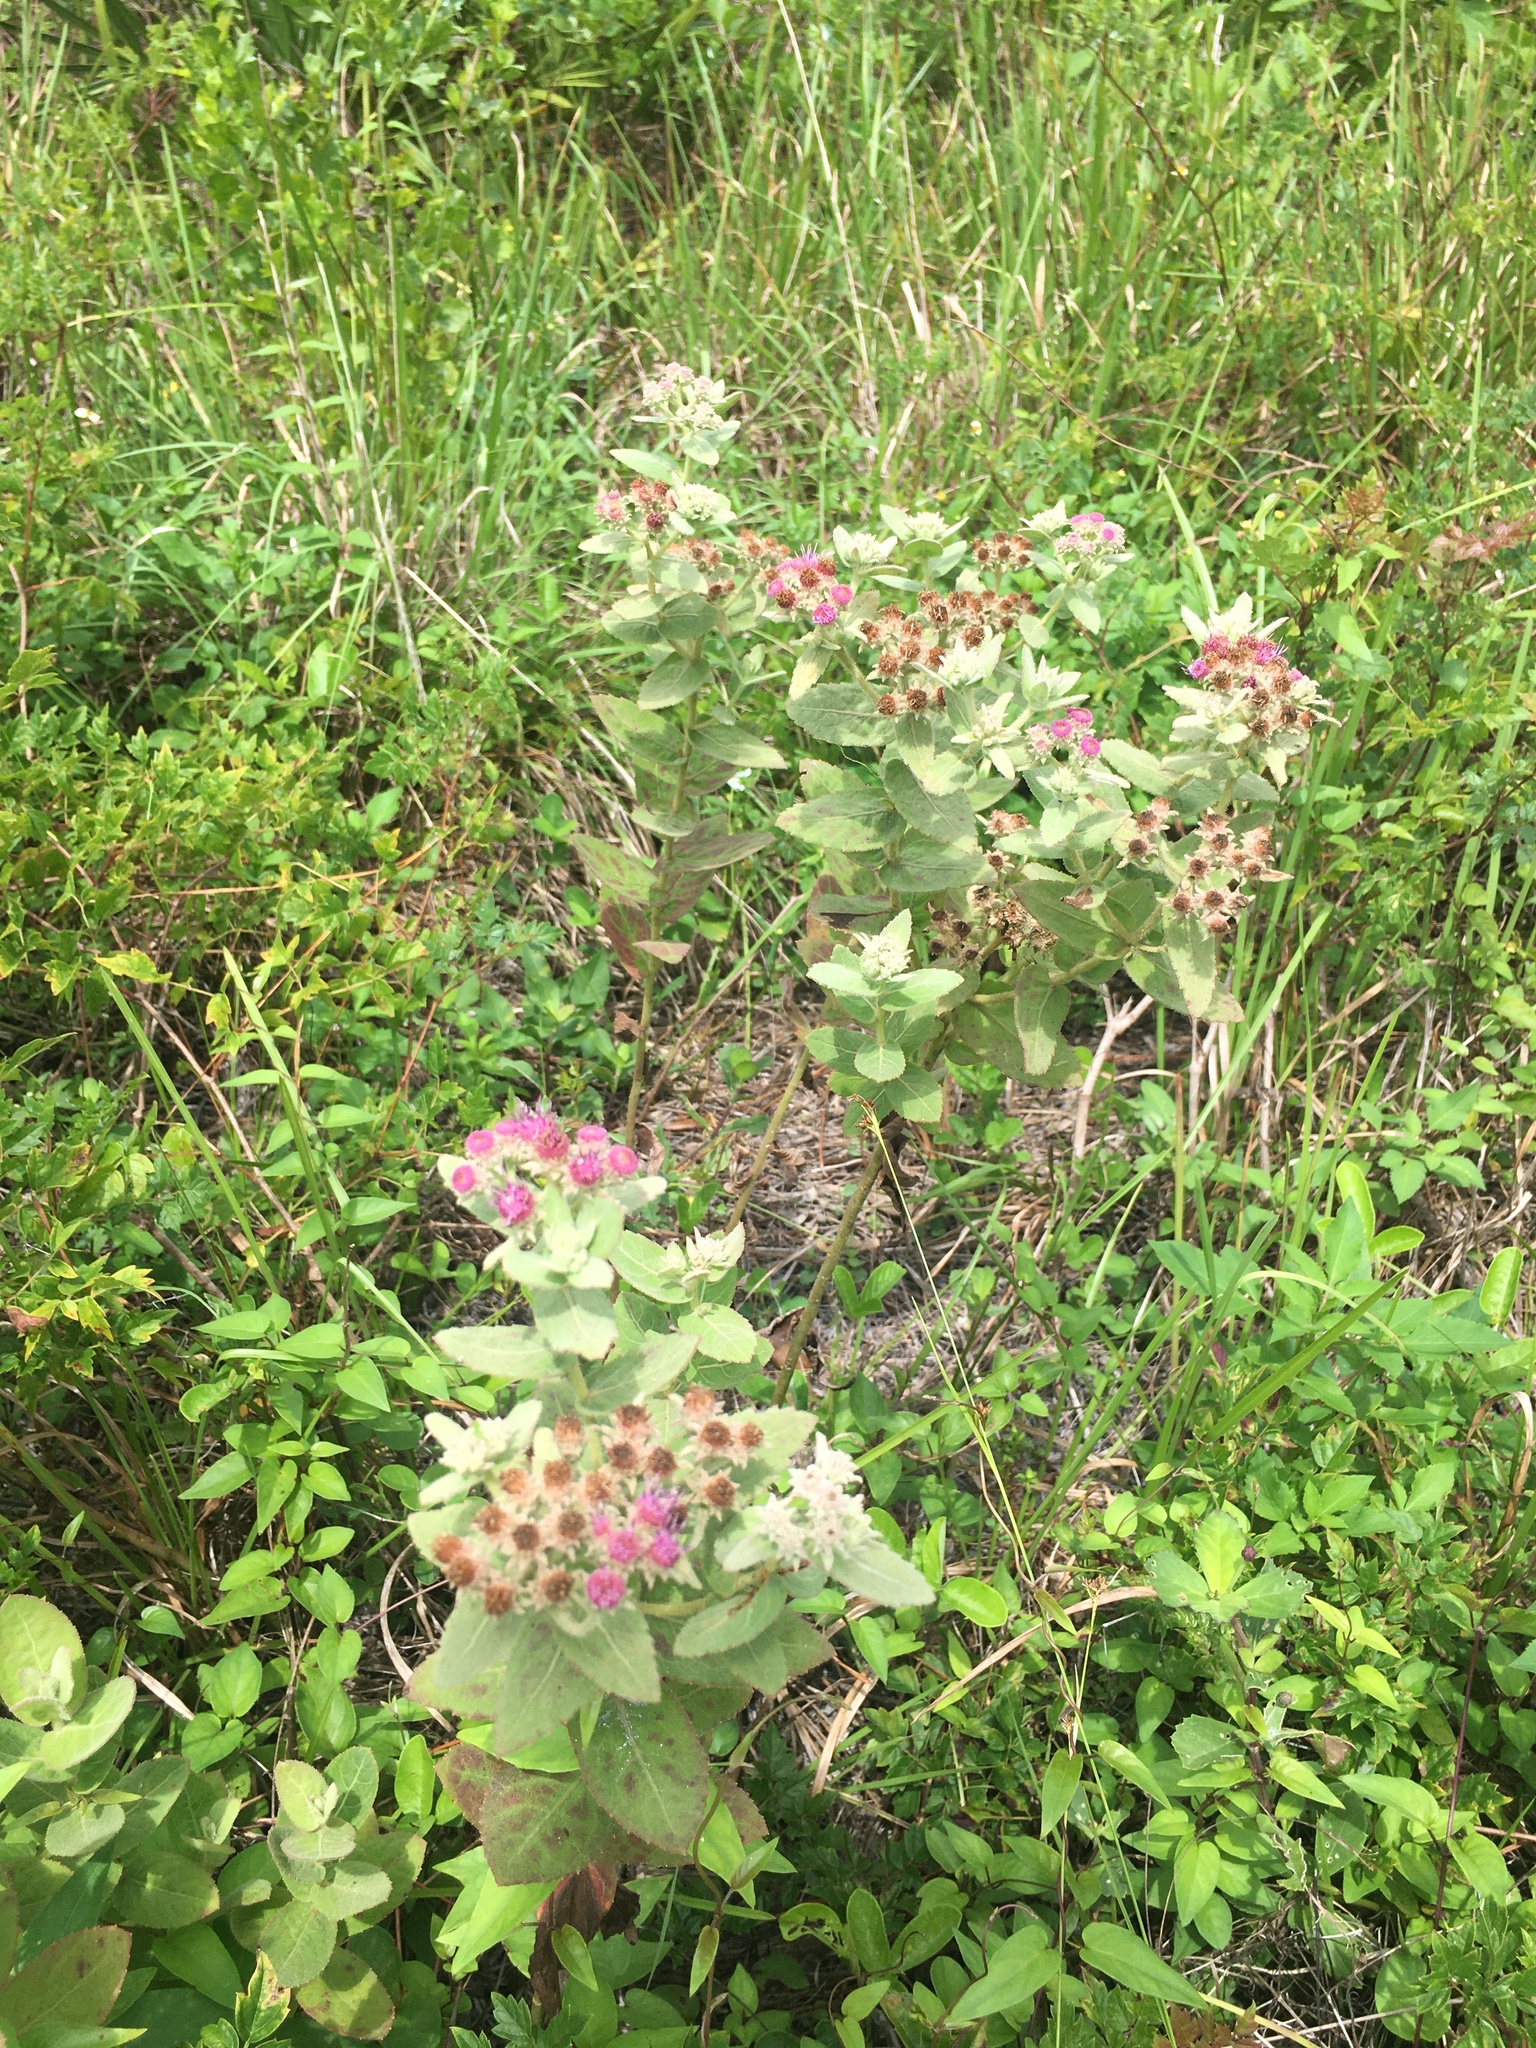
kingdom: Plantae
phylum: Tracheophyta
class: Magnoliopsida
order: Asterales
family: Asteraceae
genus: Pluchea
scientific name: Pluchea baccharis
